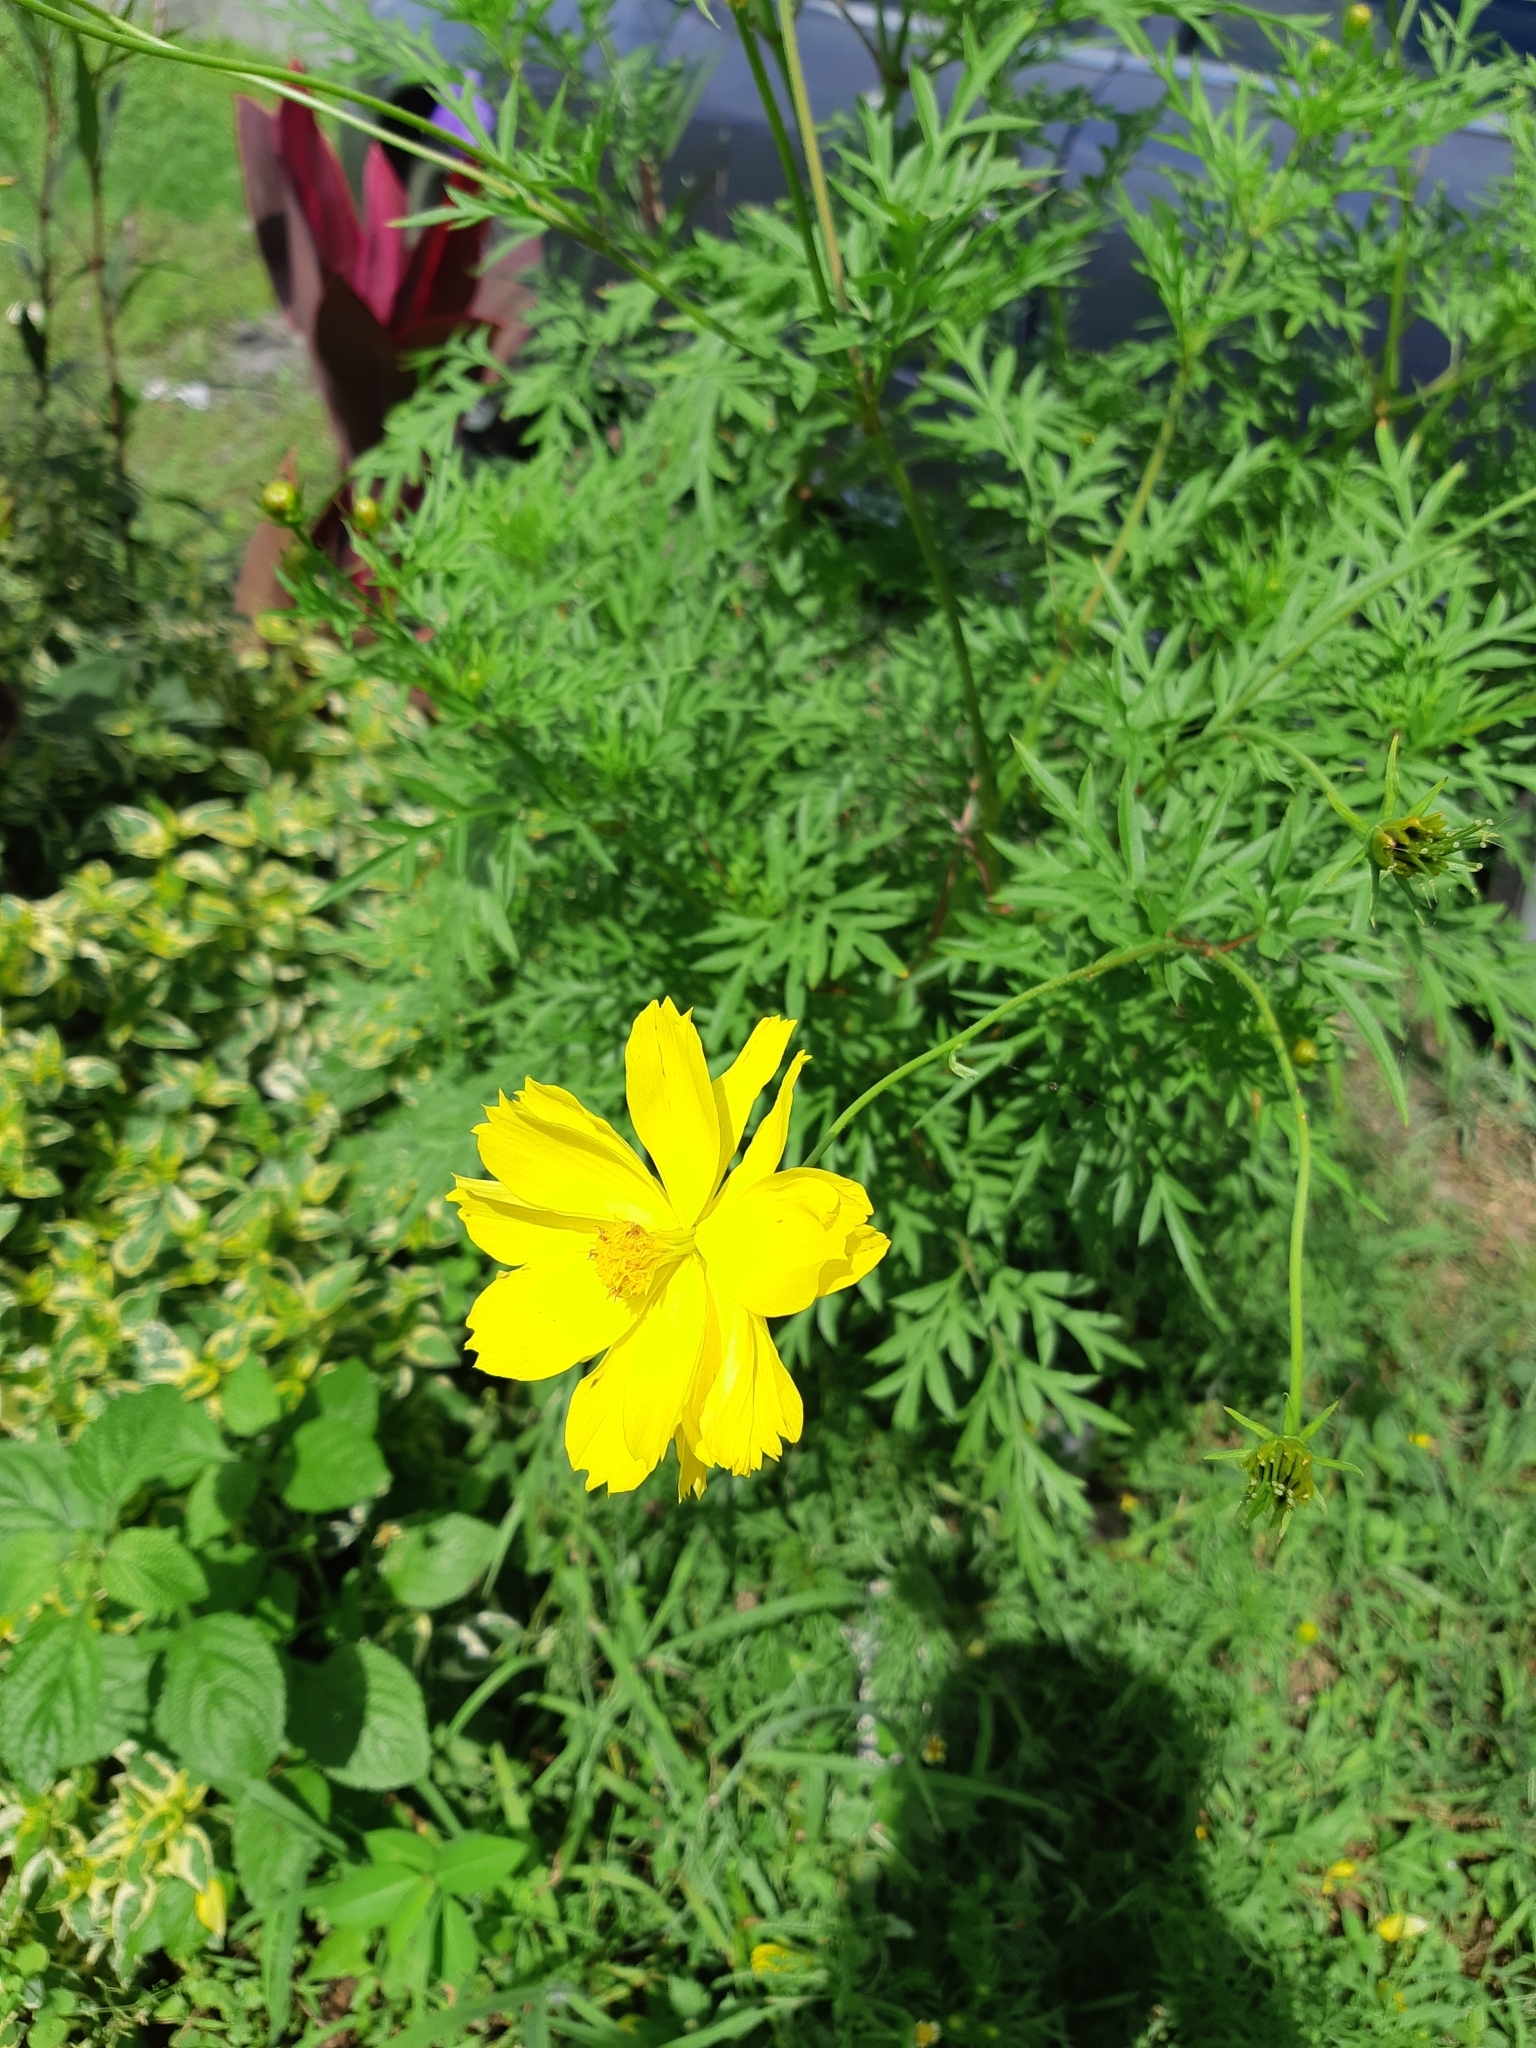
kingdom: Plantae
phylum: Tracheophyta
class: Magnoliopsida
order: Asterales
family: Asteraceae
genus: Cosmos
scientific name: Cosmos sulphureus
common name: Sulphur cosmos
